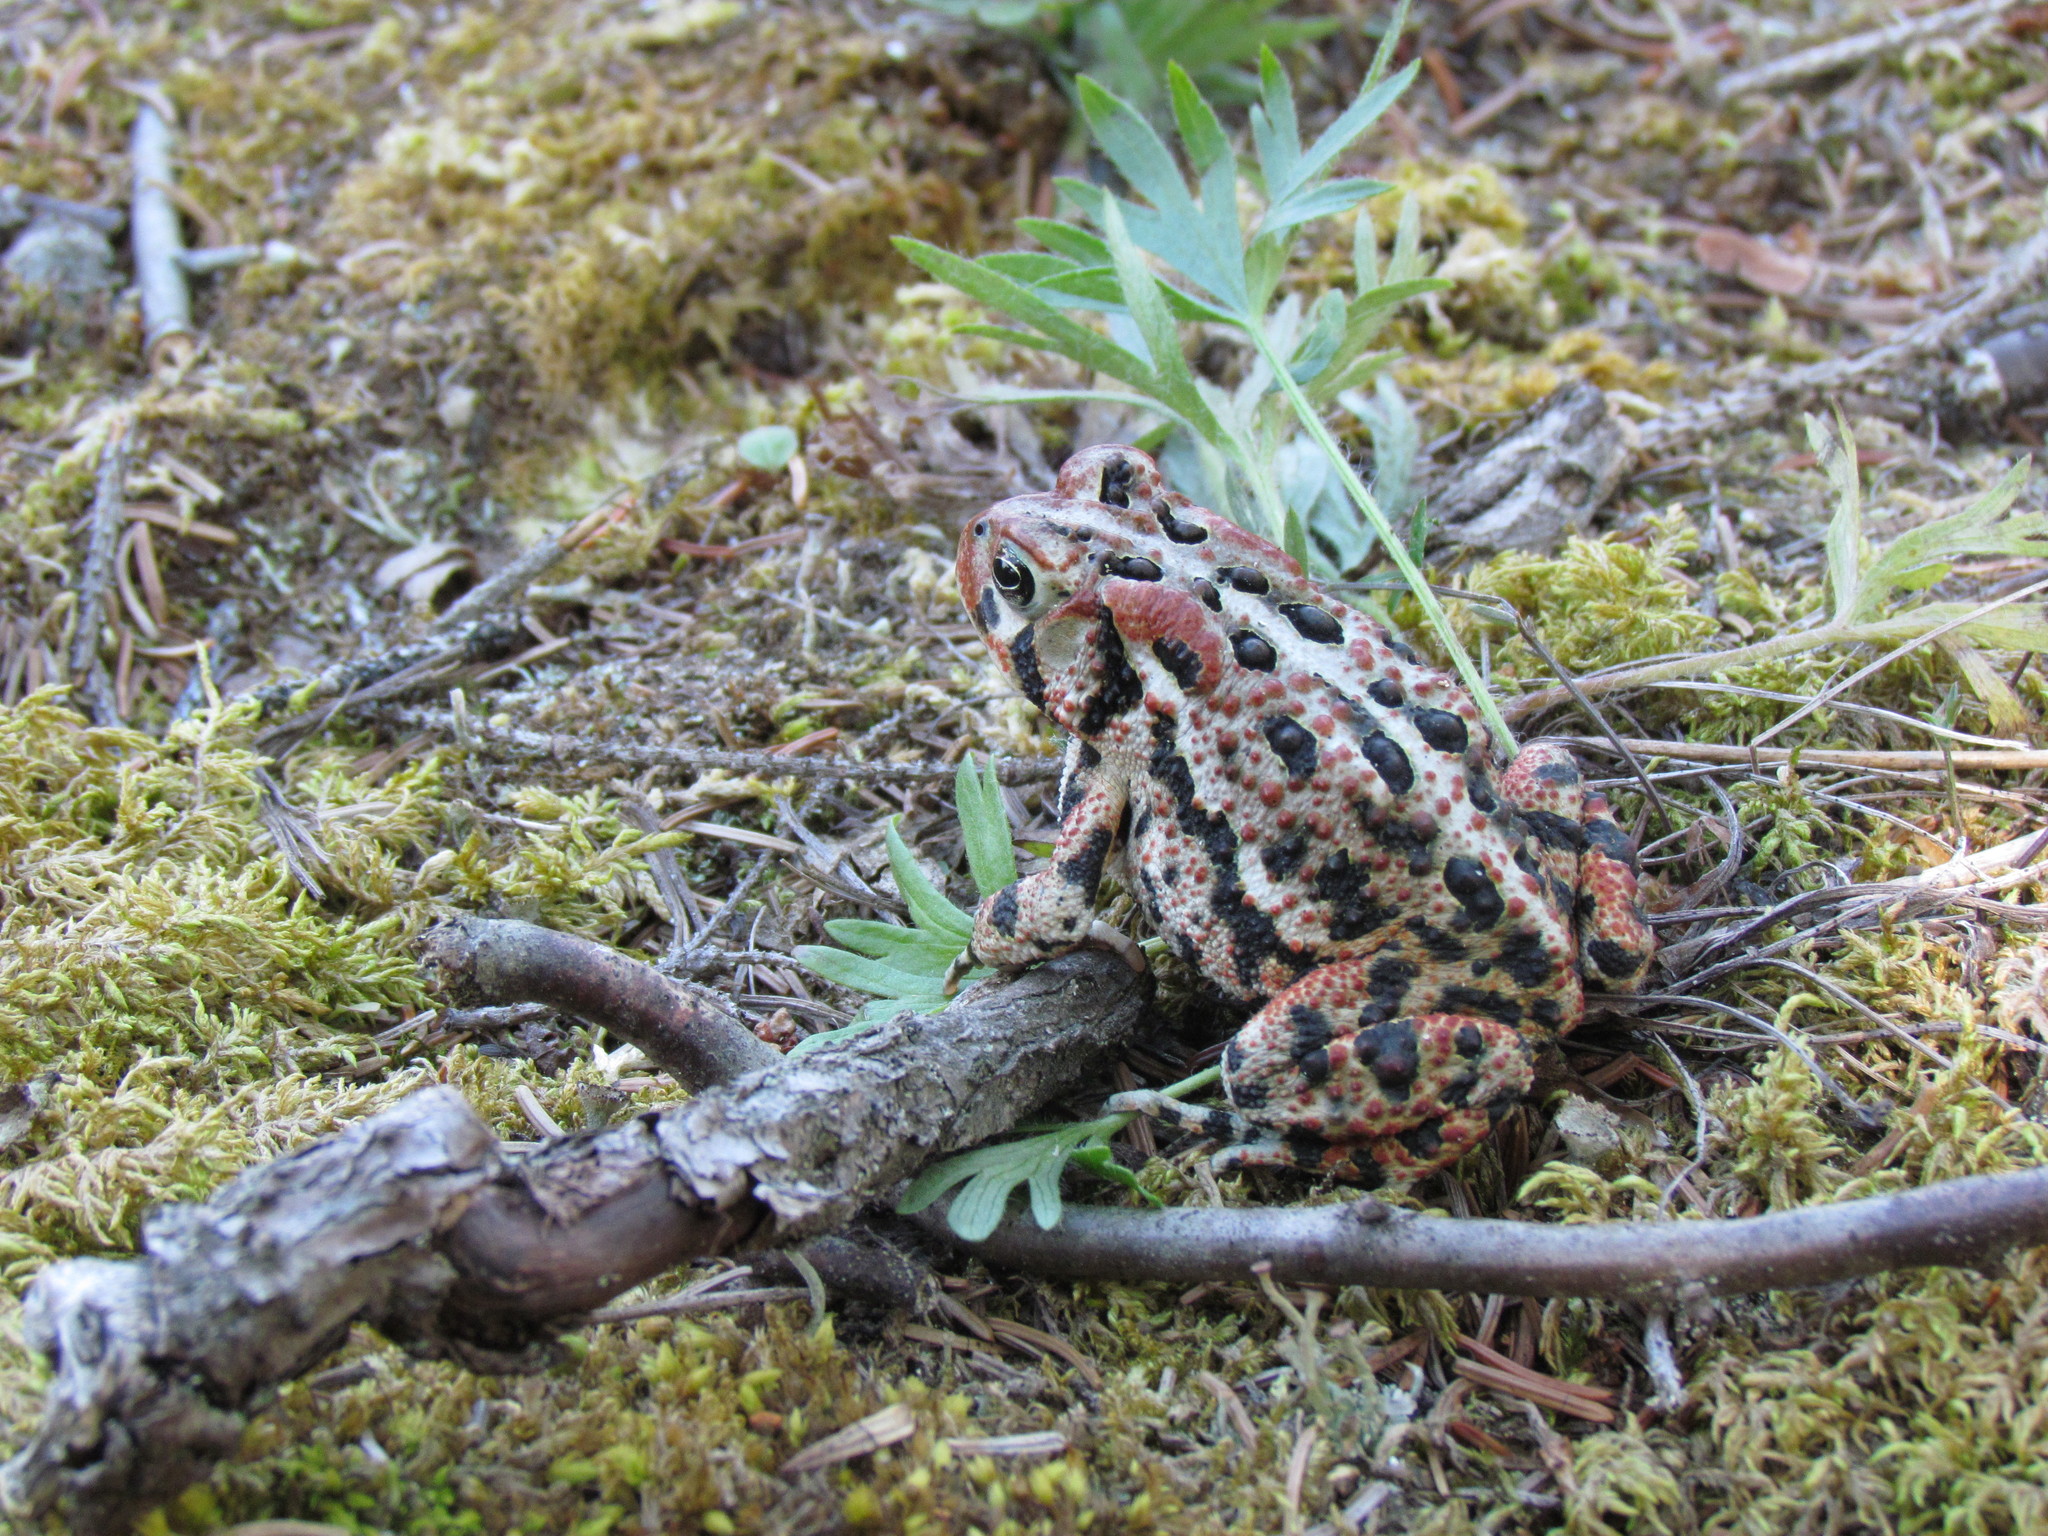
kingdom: Animalia
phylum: Chordata
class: Amphibia
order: Anura
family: Bufonidae
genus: Anaxyrus
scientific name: Anaxyrus americanus
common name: American toad
